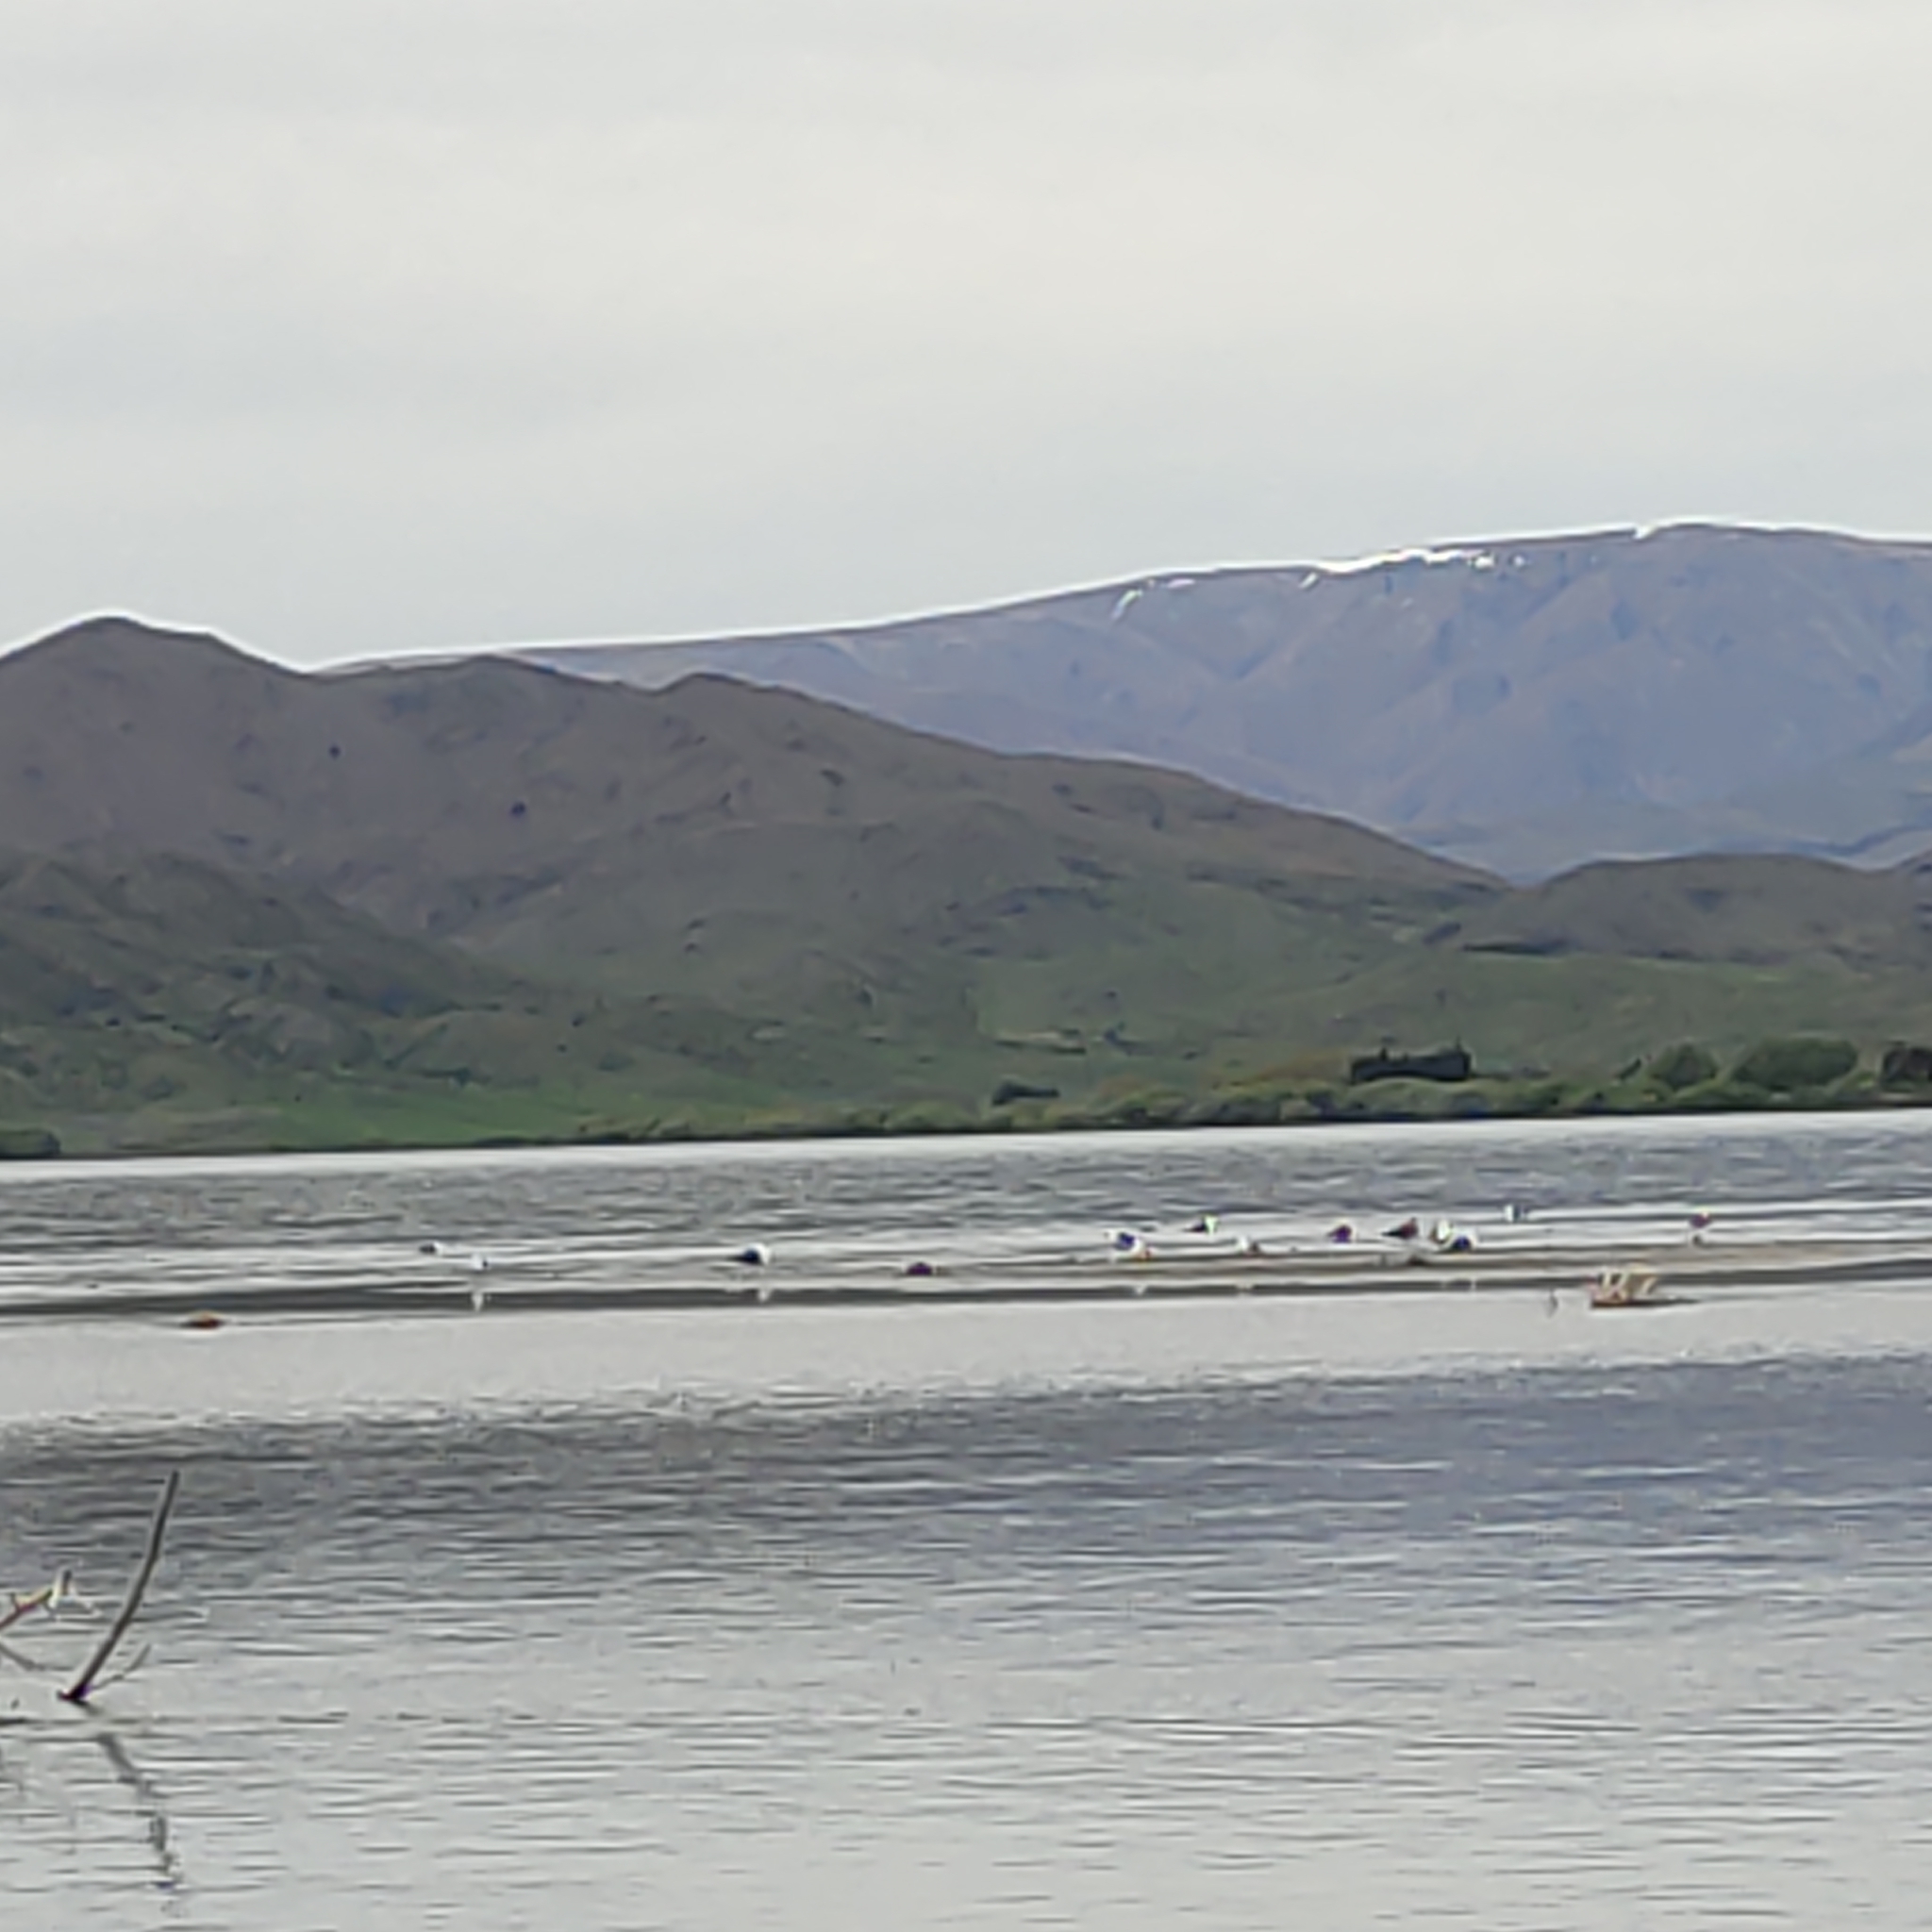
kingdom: Animalia
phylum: Chordata
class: Aves
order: Charadriiformes
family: Laridae
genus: Larus
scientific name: Larus dominicanus
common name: Kelp gull
